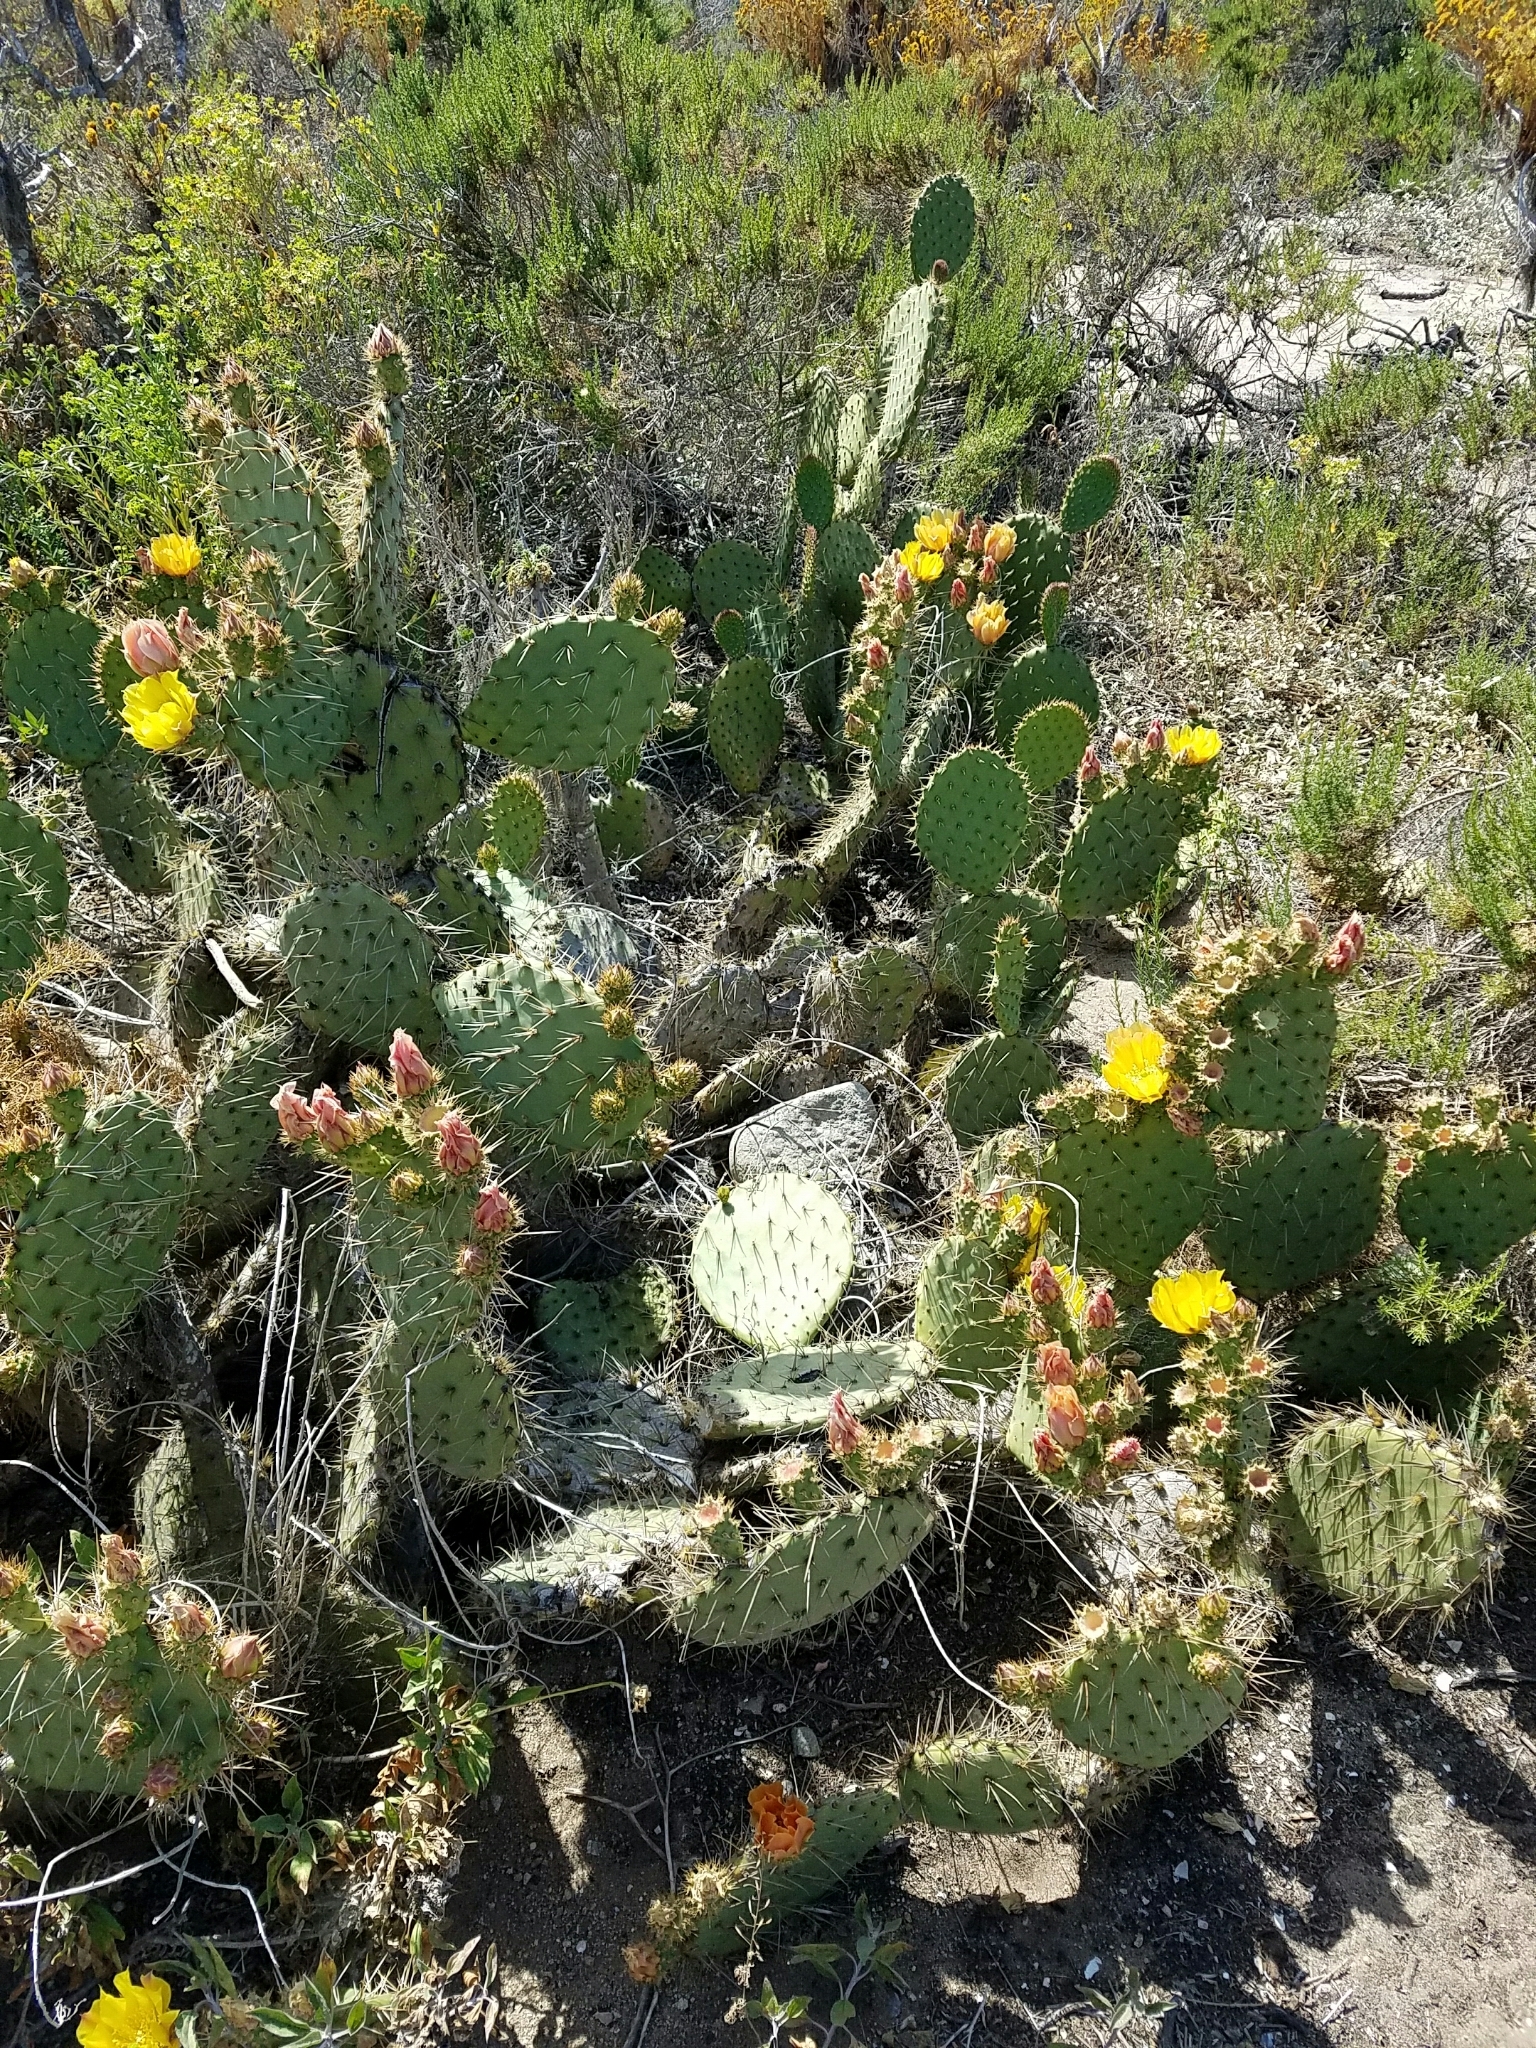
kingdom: Plantae
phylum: Tracheophyta
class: Magnoliopsida
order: Caryophyllales
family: Cactaceae
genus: Opuntia
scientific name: Opuntia oricola
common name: Chaparral prickly-pear
